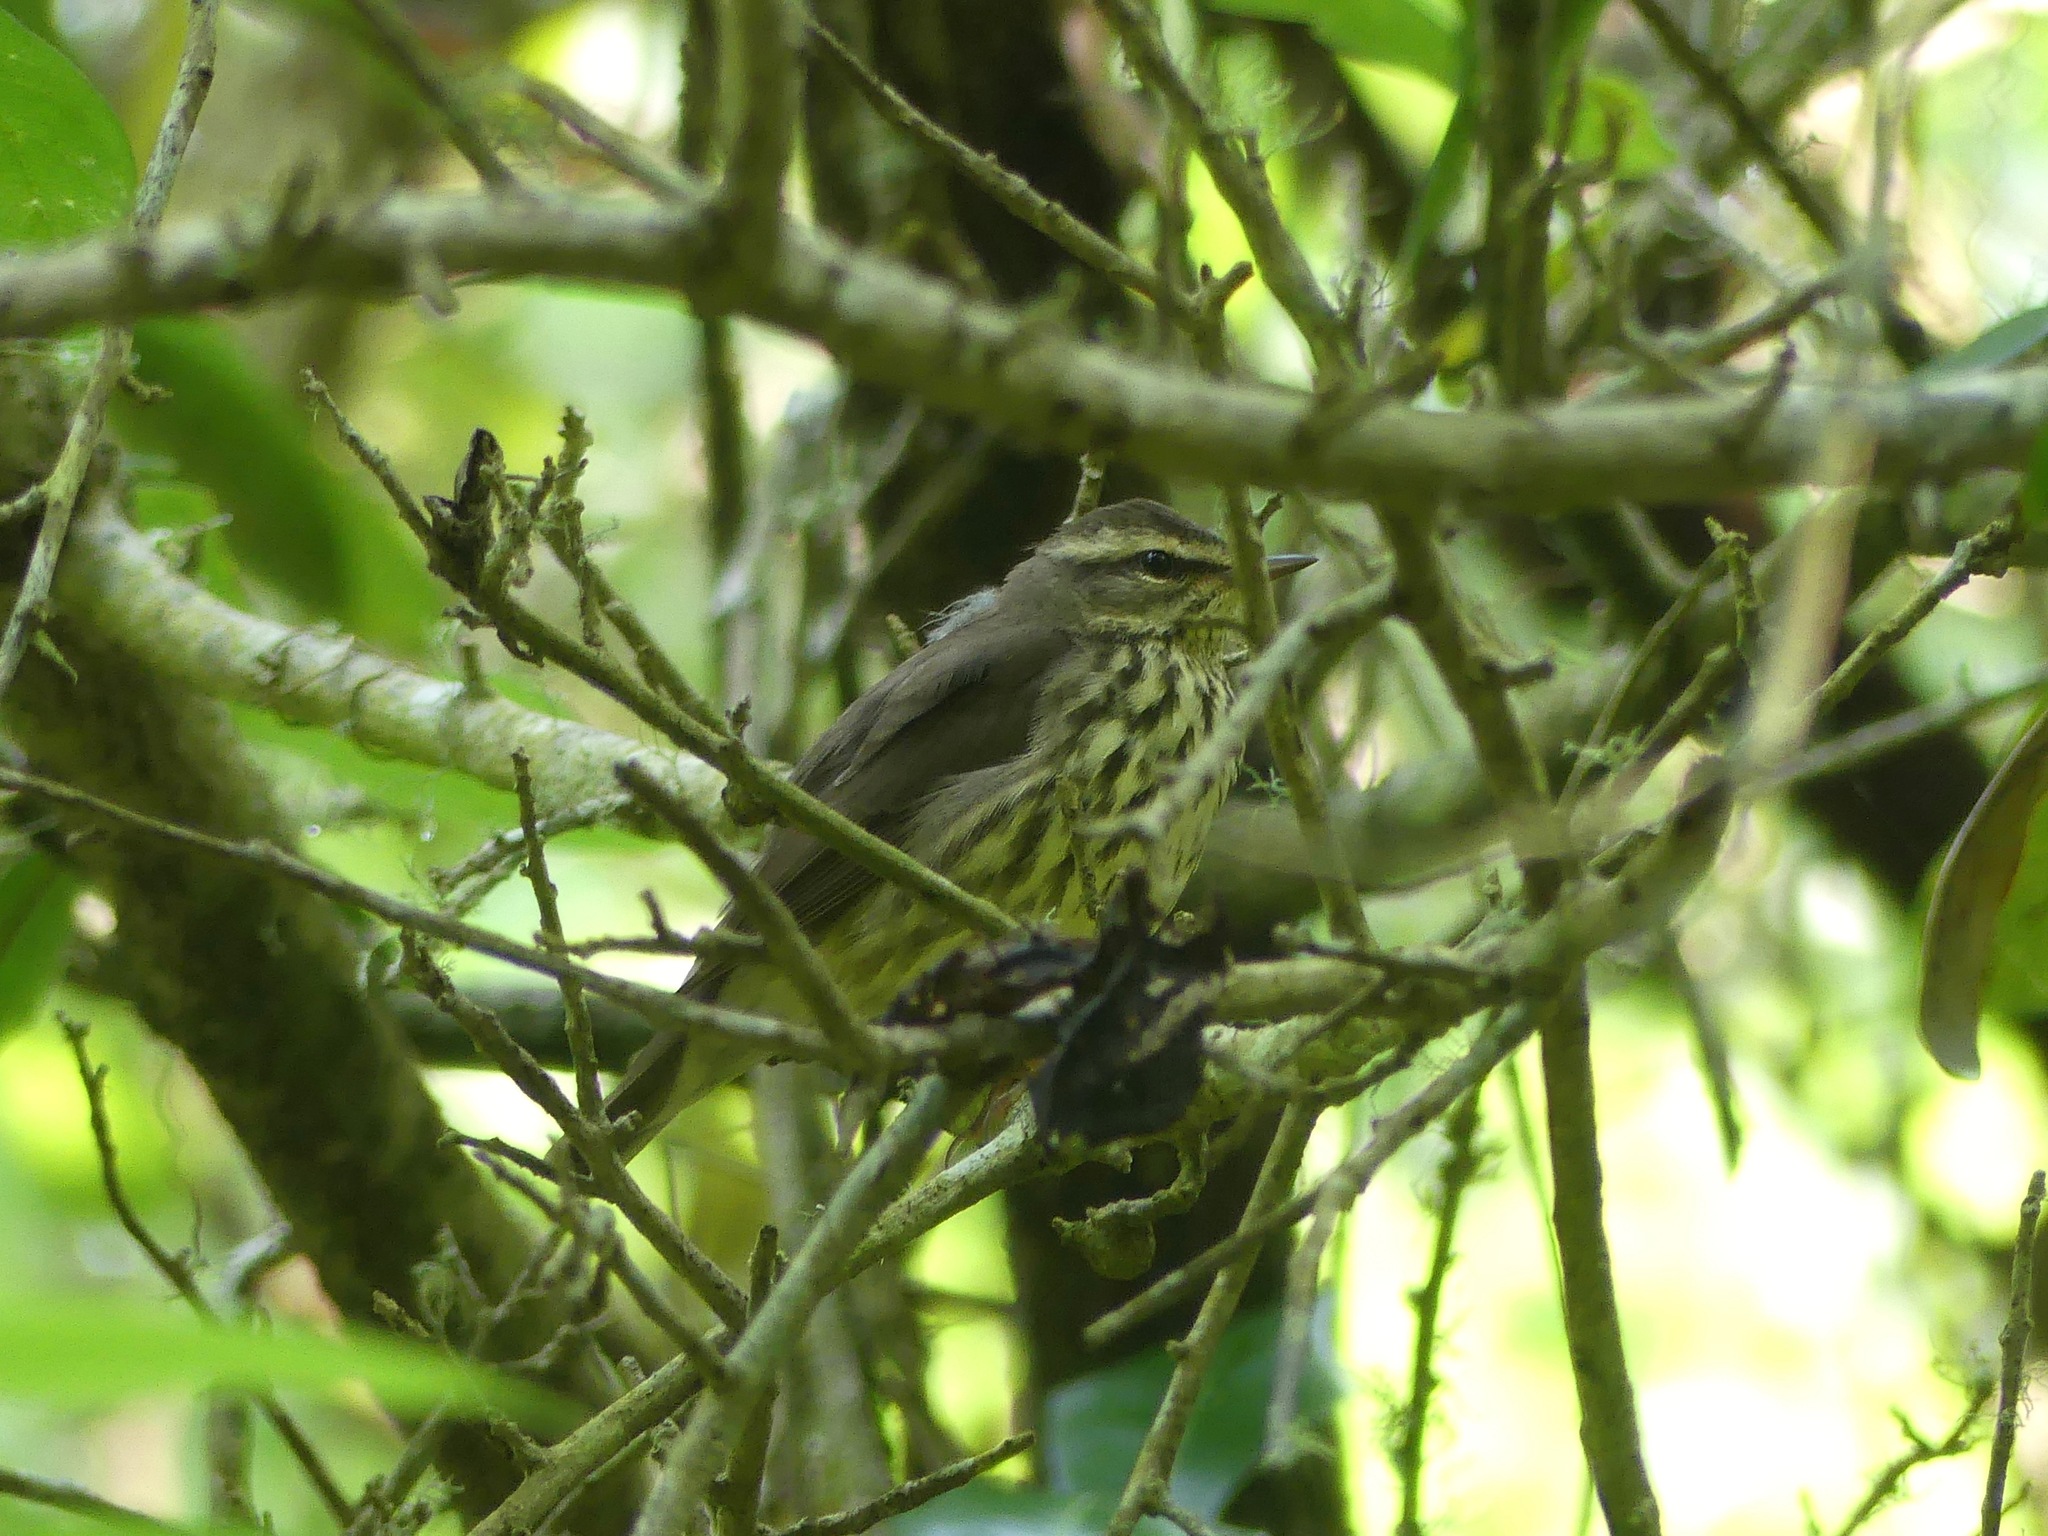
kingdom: Animalia
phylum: Chordata
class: Aves
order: Passeriformes
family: Parulidae
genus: Parkesia
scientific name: Parkesia noveboracensis
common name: Northern waterthrush
